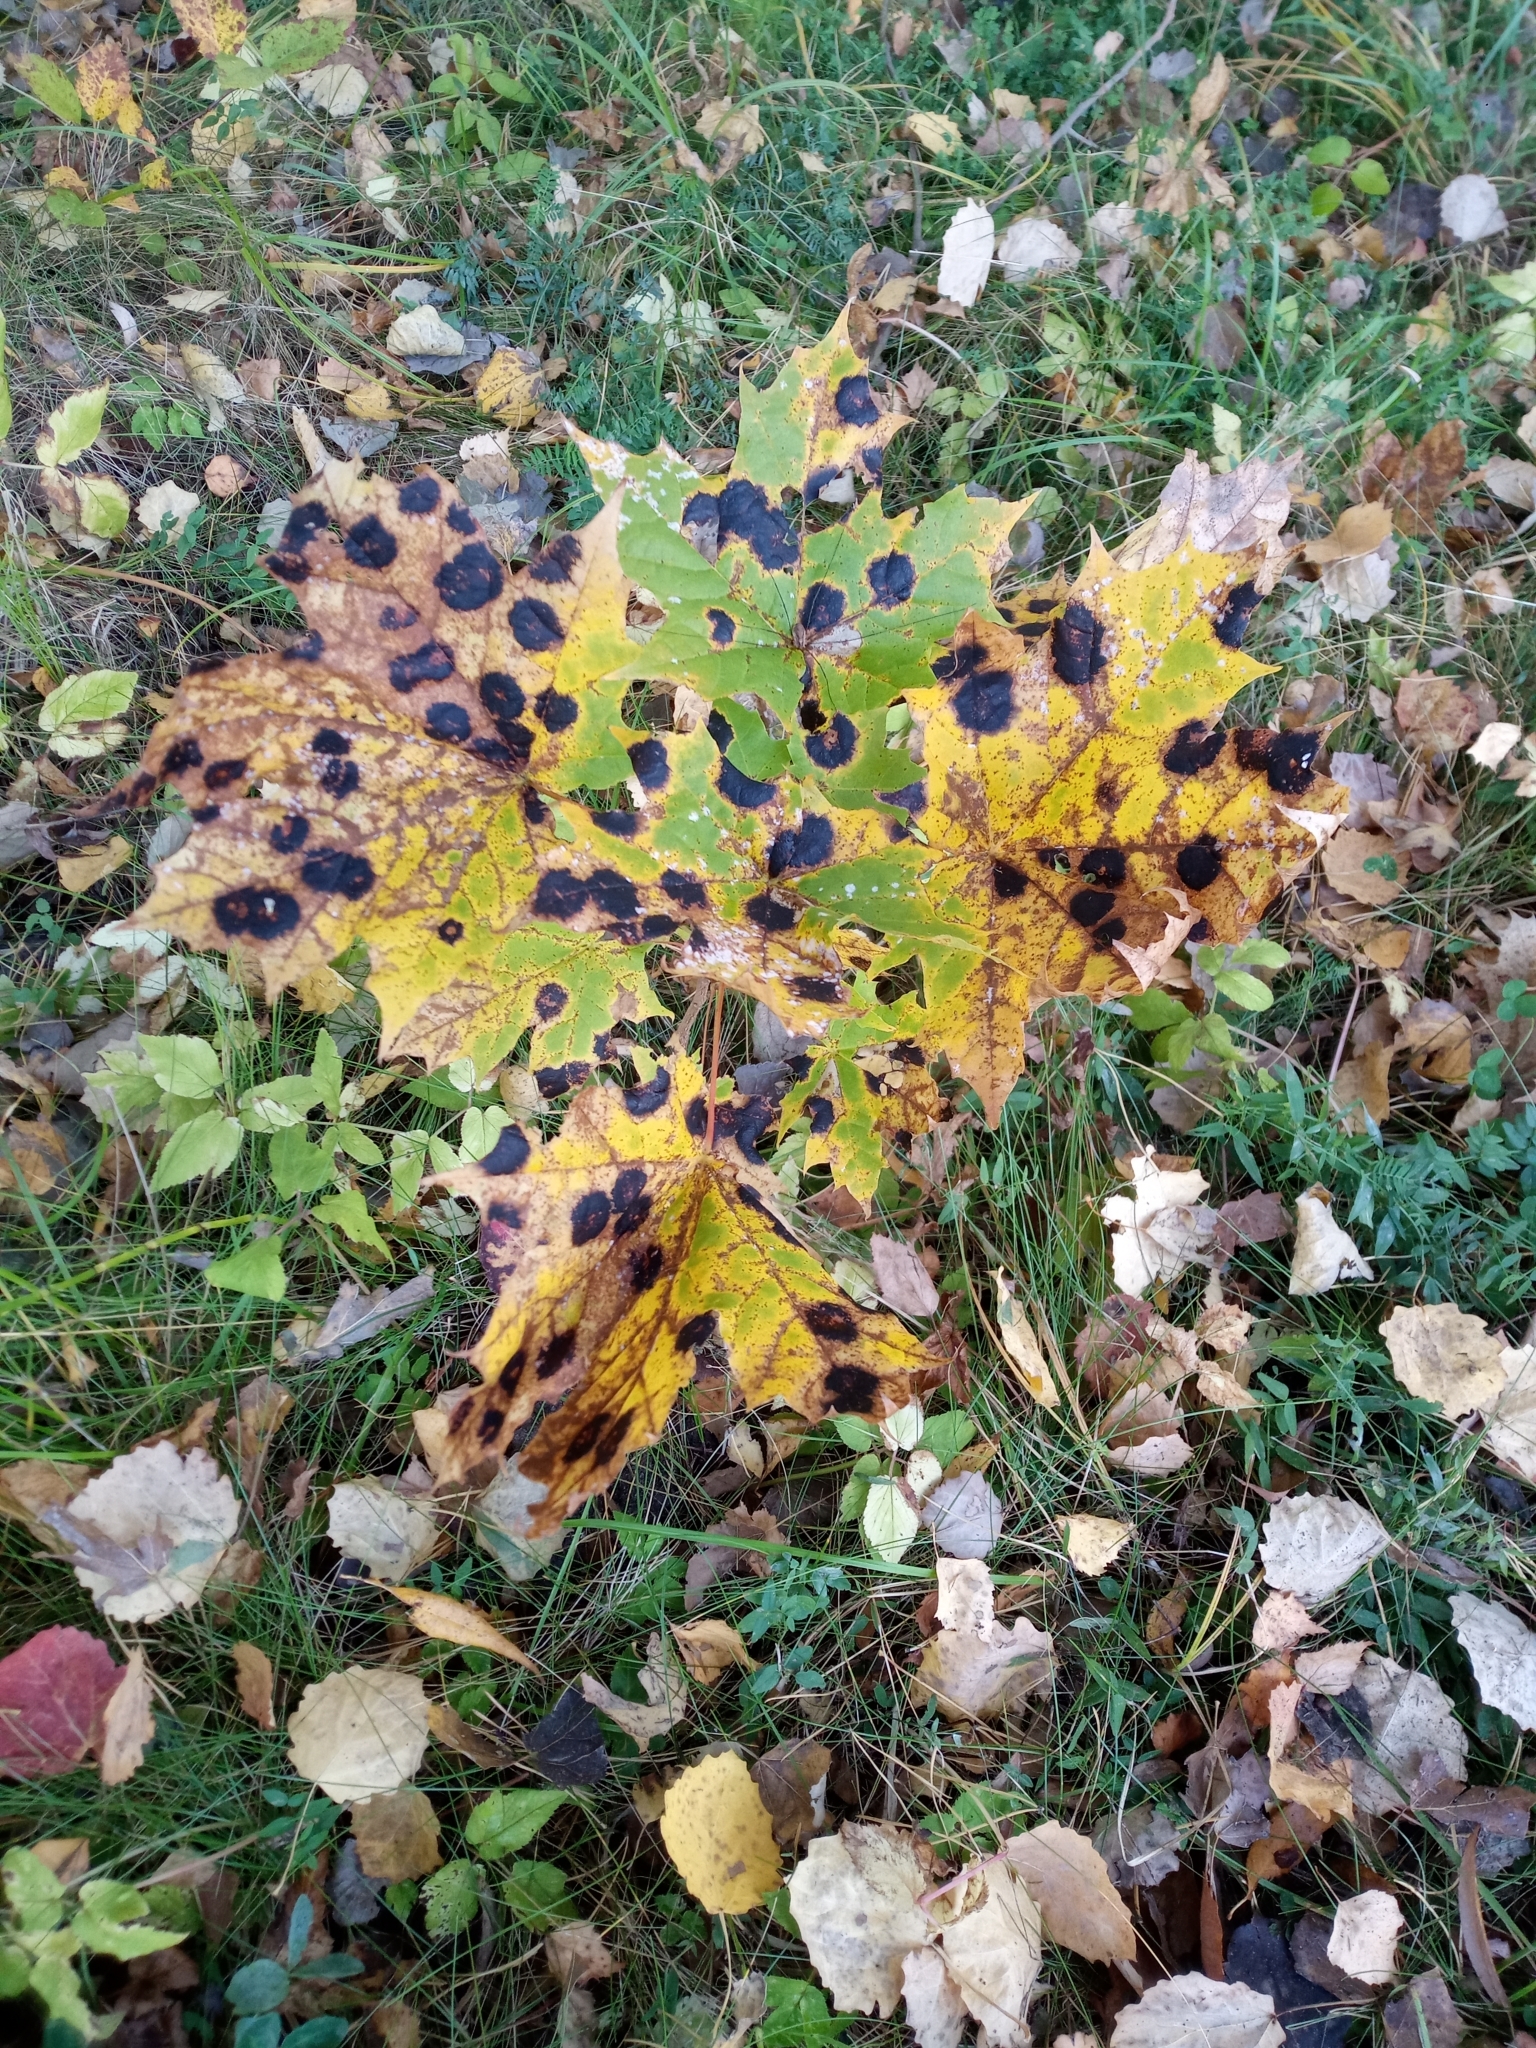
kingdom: Plantae
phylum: Tracheophyta
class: Magnoliopsida
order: Sapindales
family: Sapindaceae
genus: Acer
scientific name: Acer platanoides
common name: Norway maple
